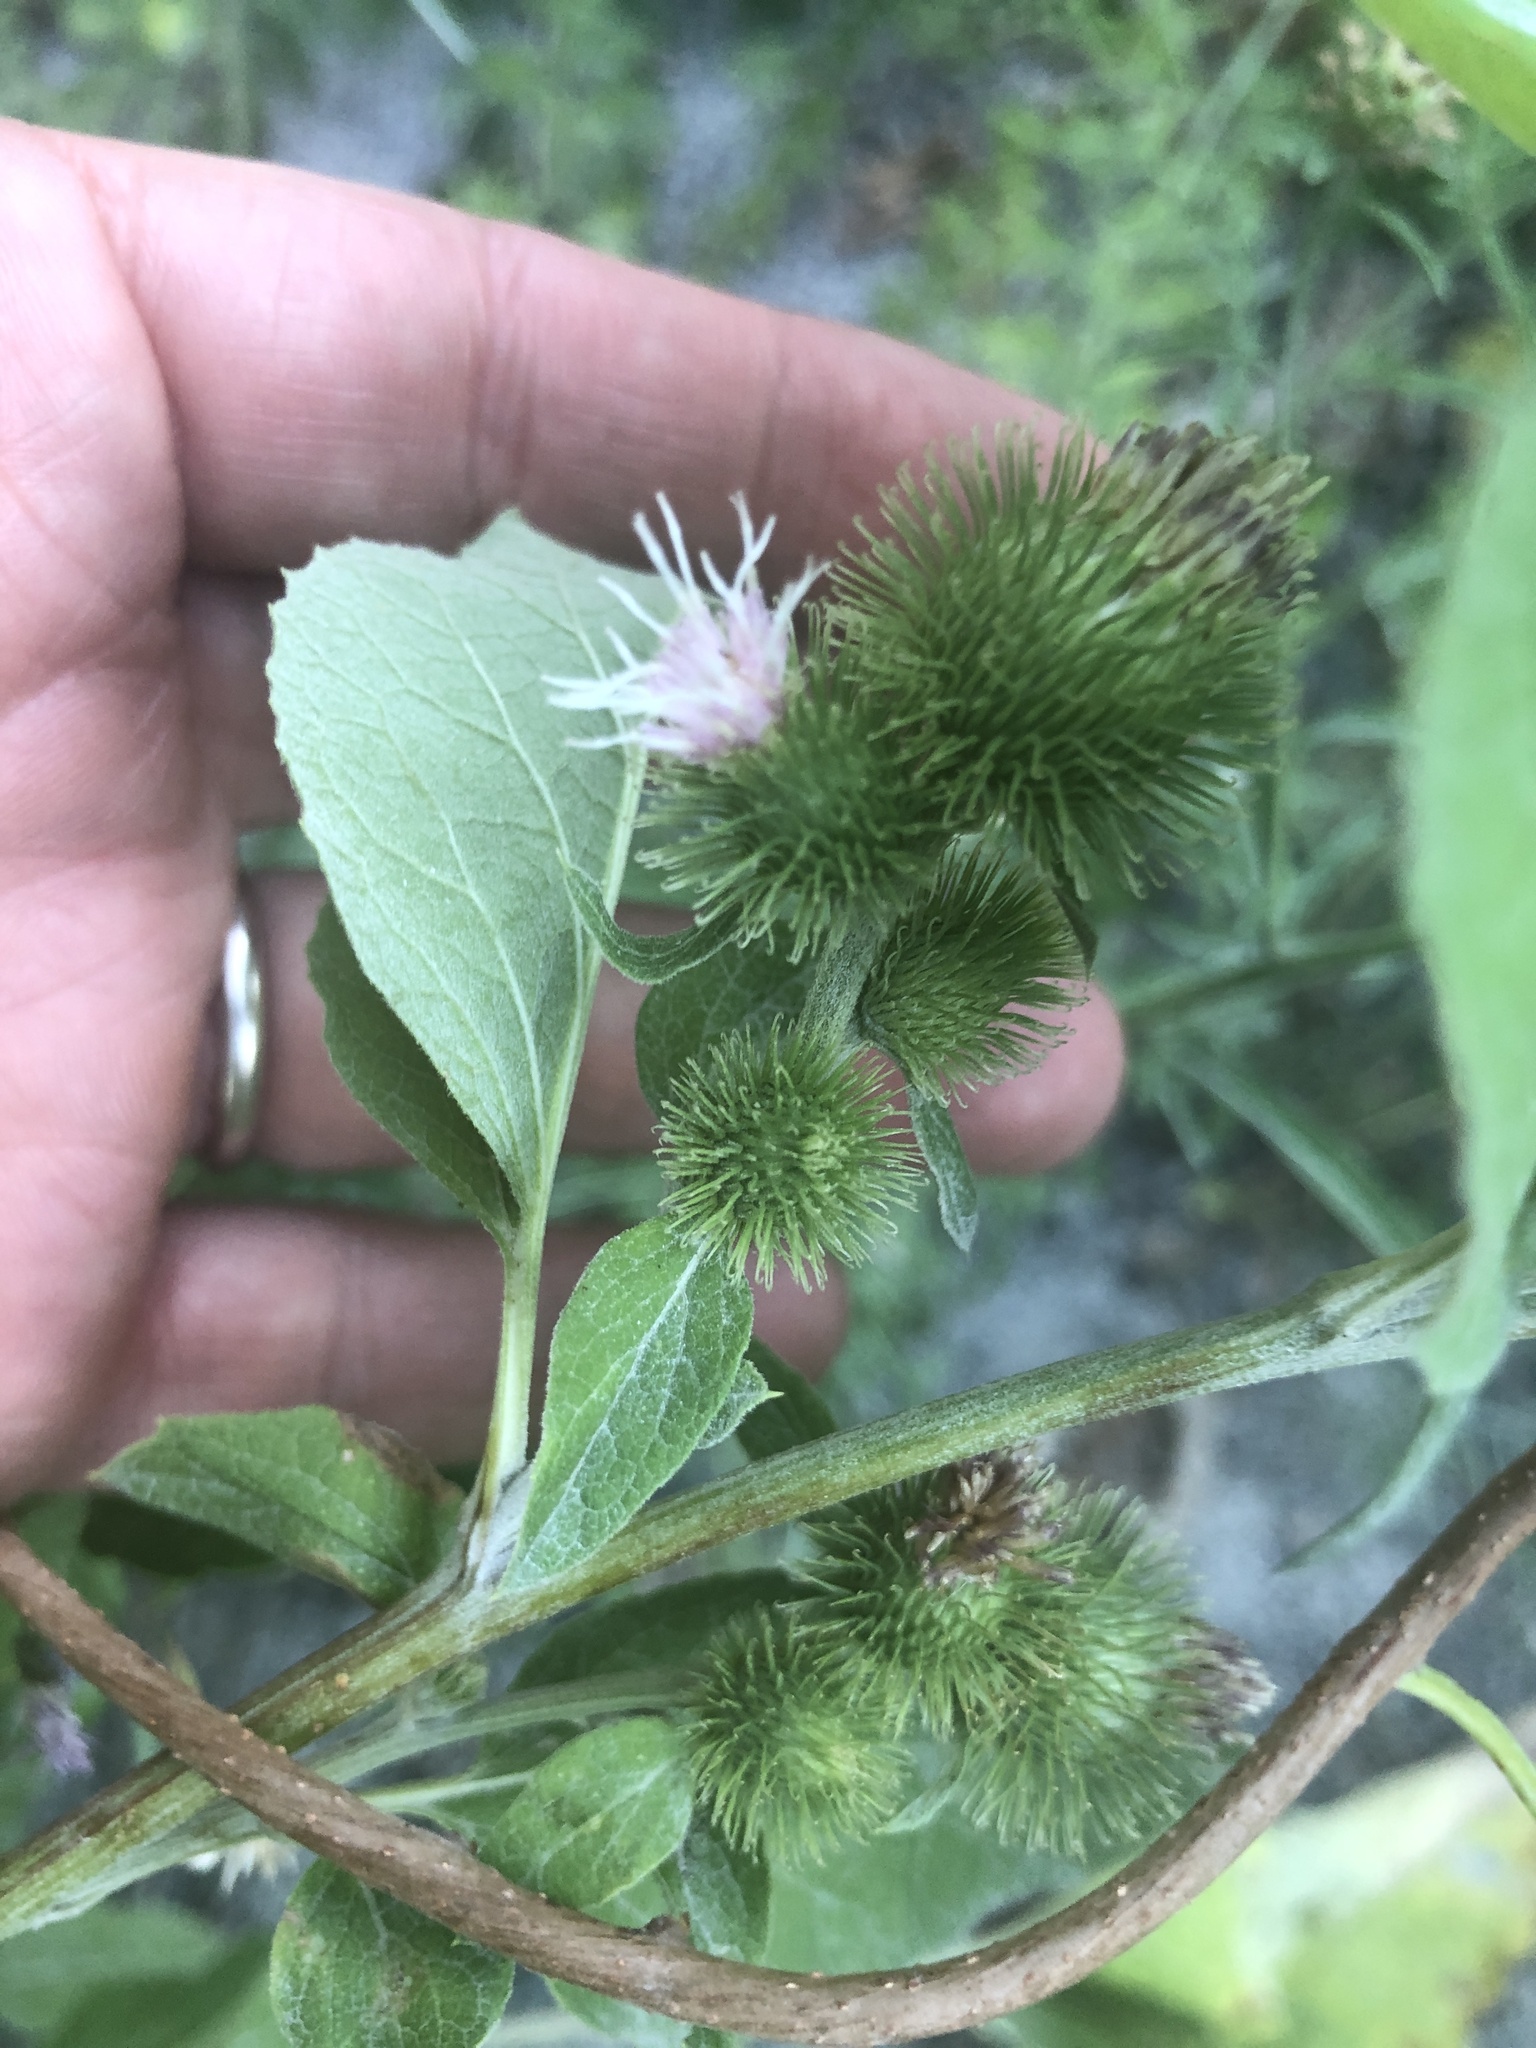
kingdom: Plantae
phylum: Tracheophyta
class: Magnoliopsida
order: Asterales
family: Asteraceae
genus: Arctium
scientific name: Arctium minus
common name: Lesser burdock
